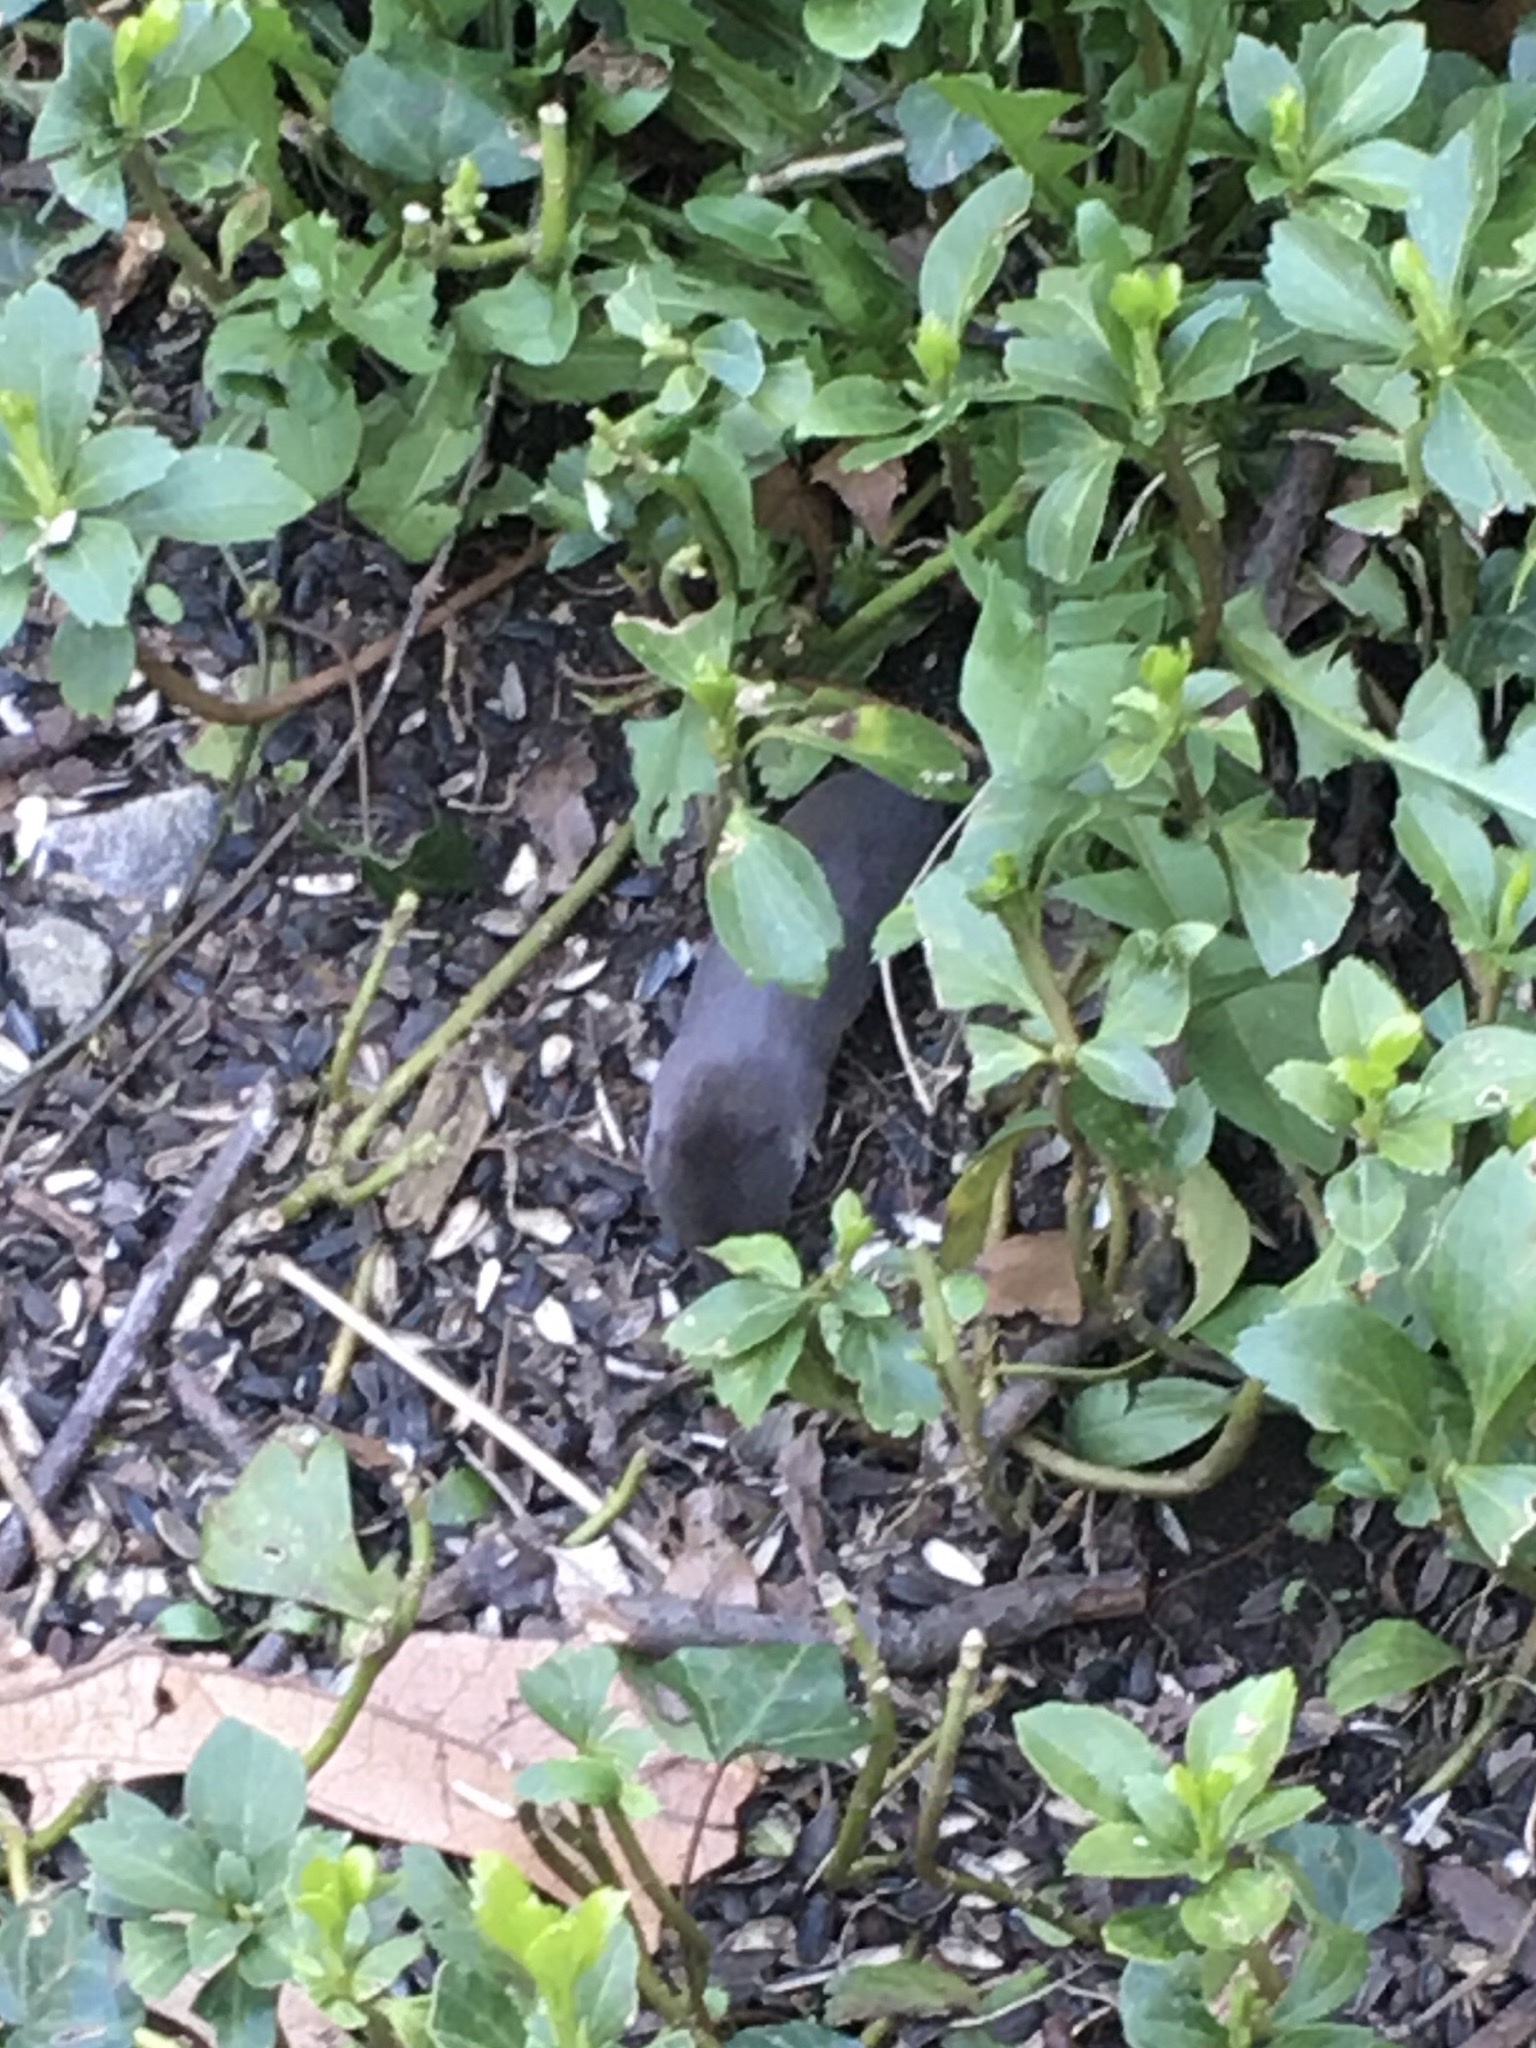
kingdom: Animalia
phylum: Chordata
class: Mammalia
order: Soricomorpha
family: Soricidae
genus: Blarina
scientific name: Blarina brevicauda
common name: Northern short-tailed shrew
